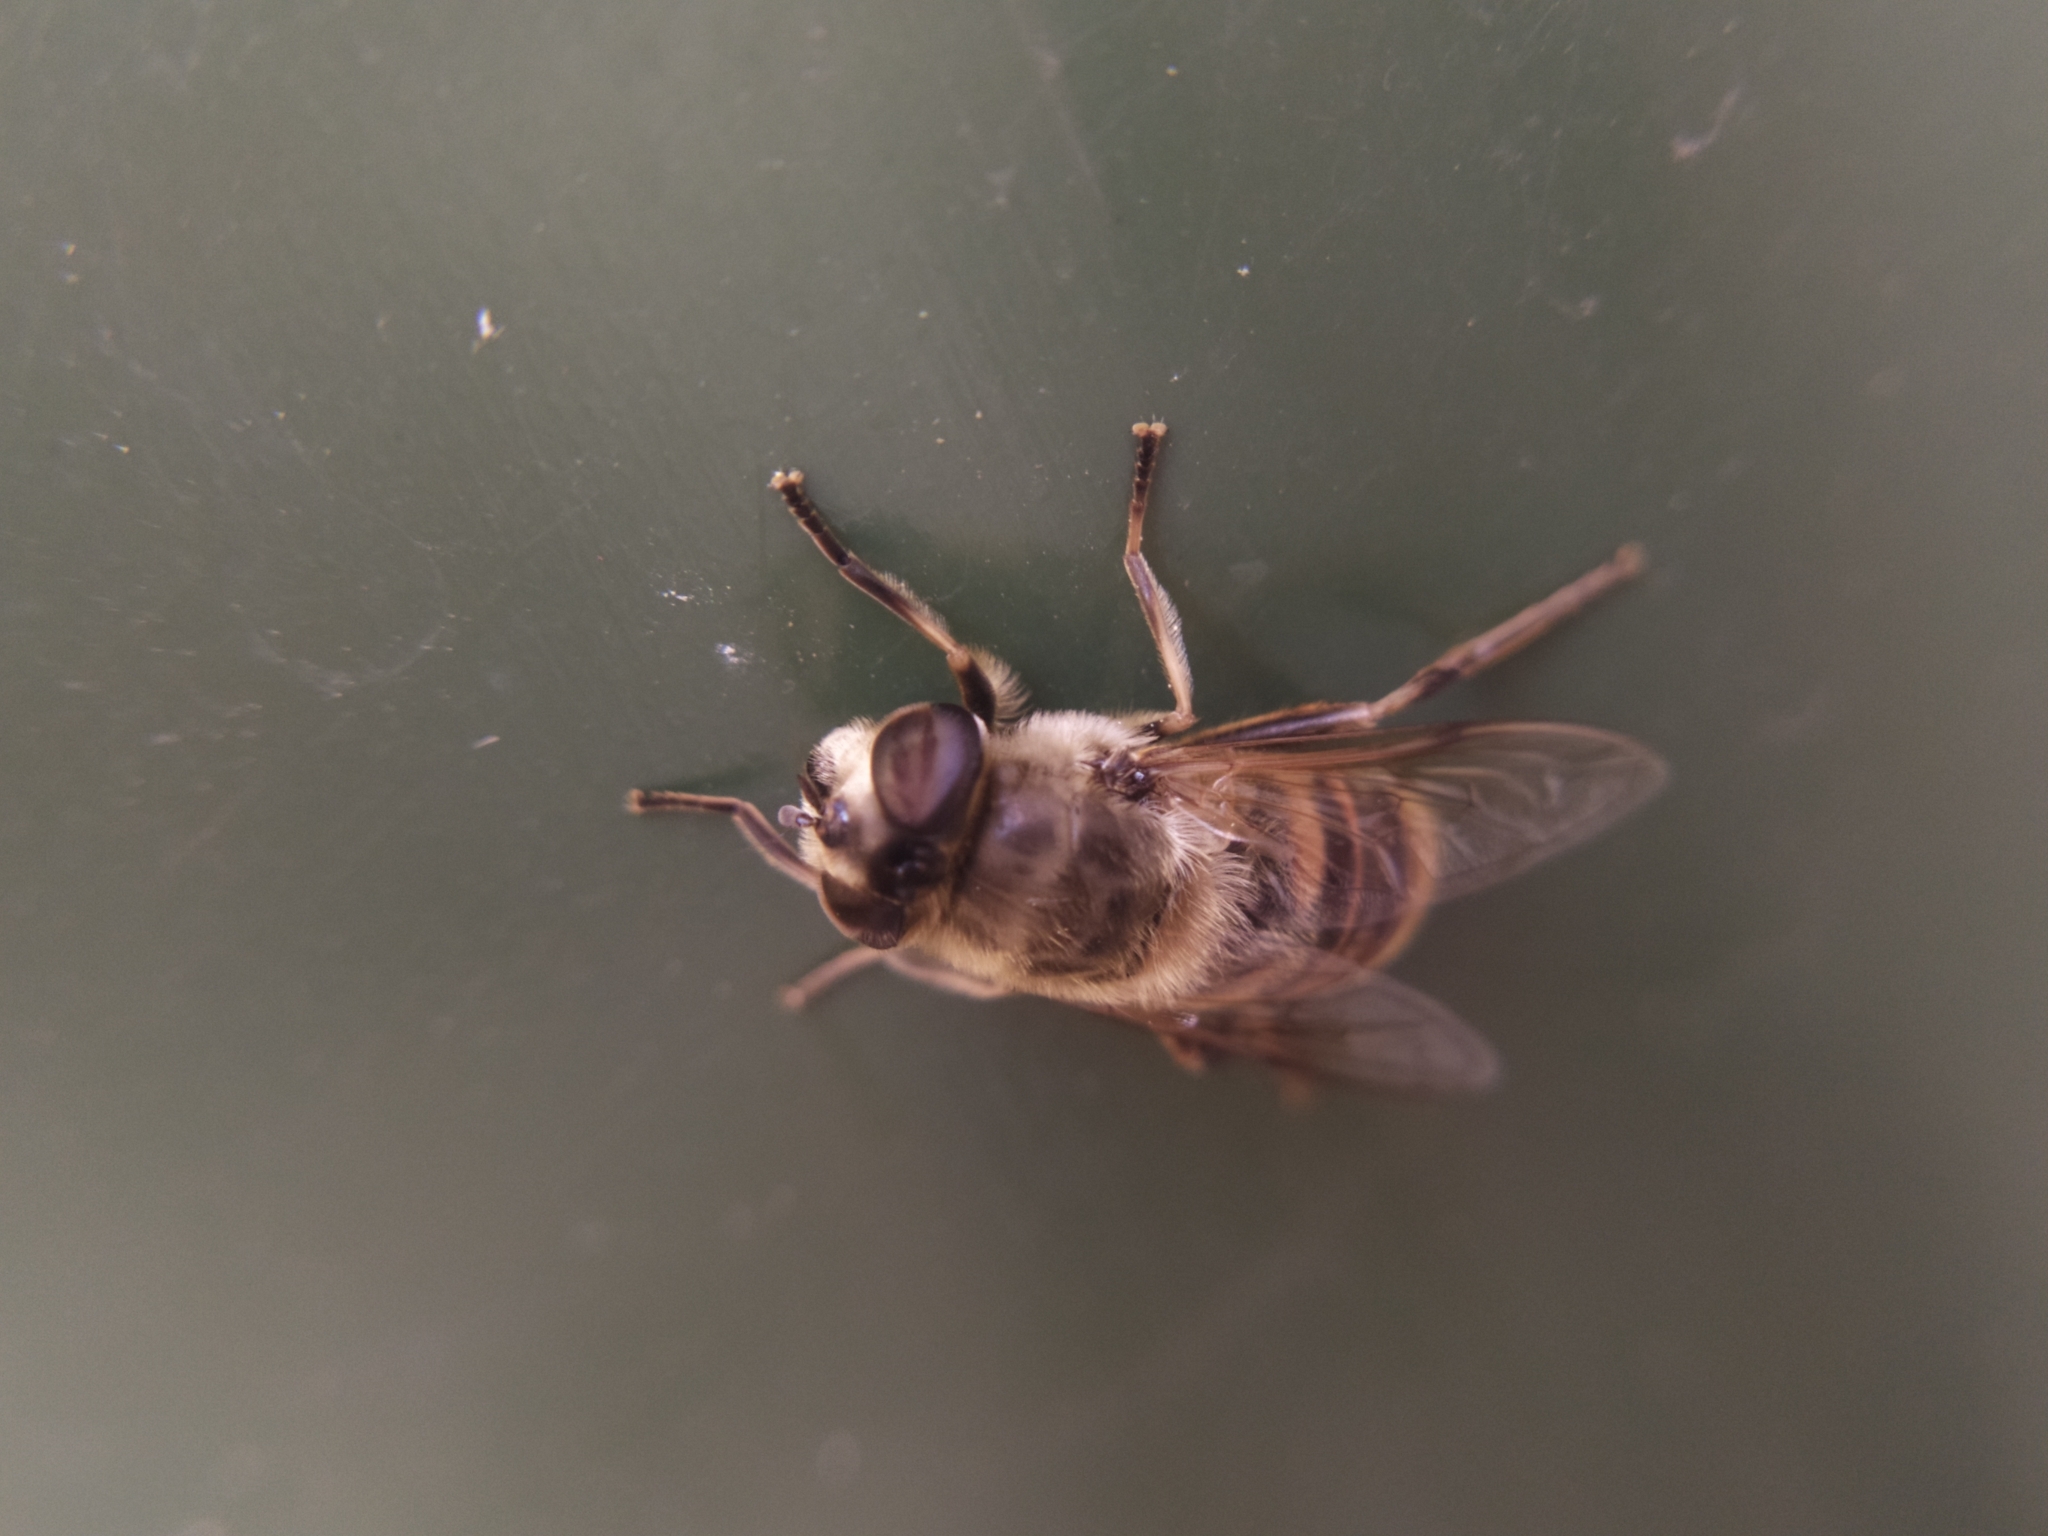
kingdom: Animalia
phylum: Arthropoda
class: Insecta
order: Diptera
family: Syrphidae
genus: Eristalis
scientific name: Eristalis tenax
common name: Drone fly
